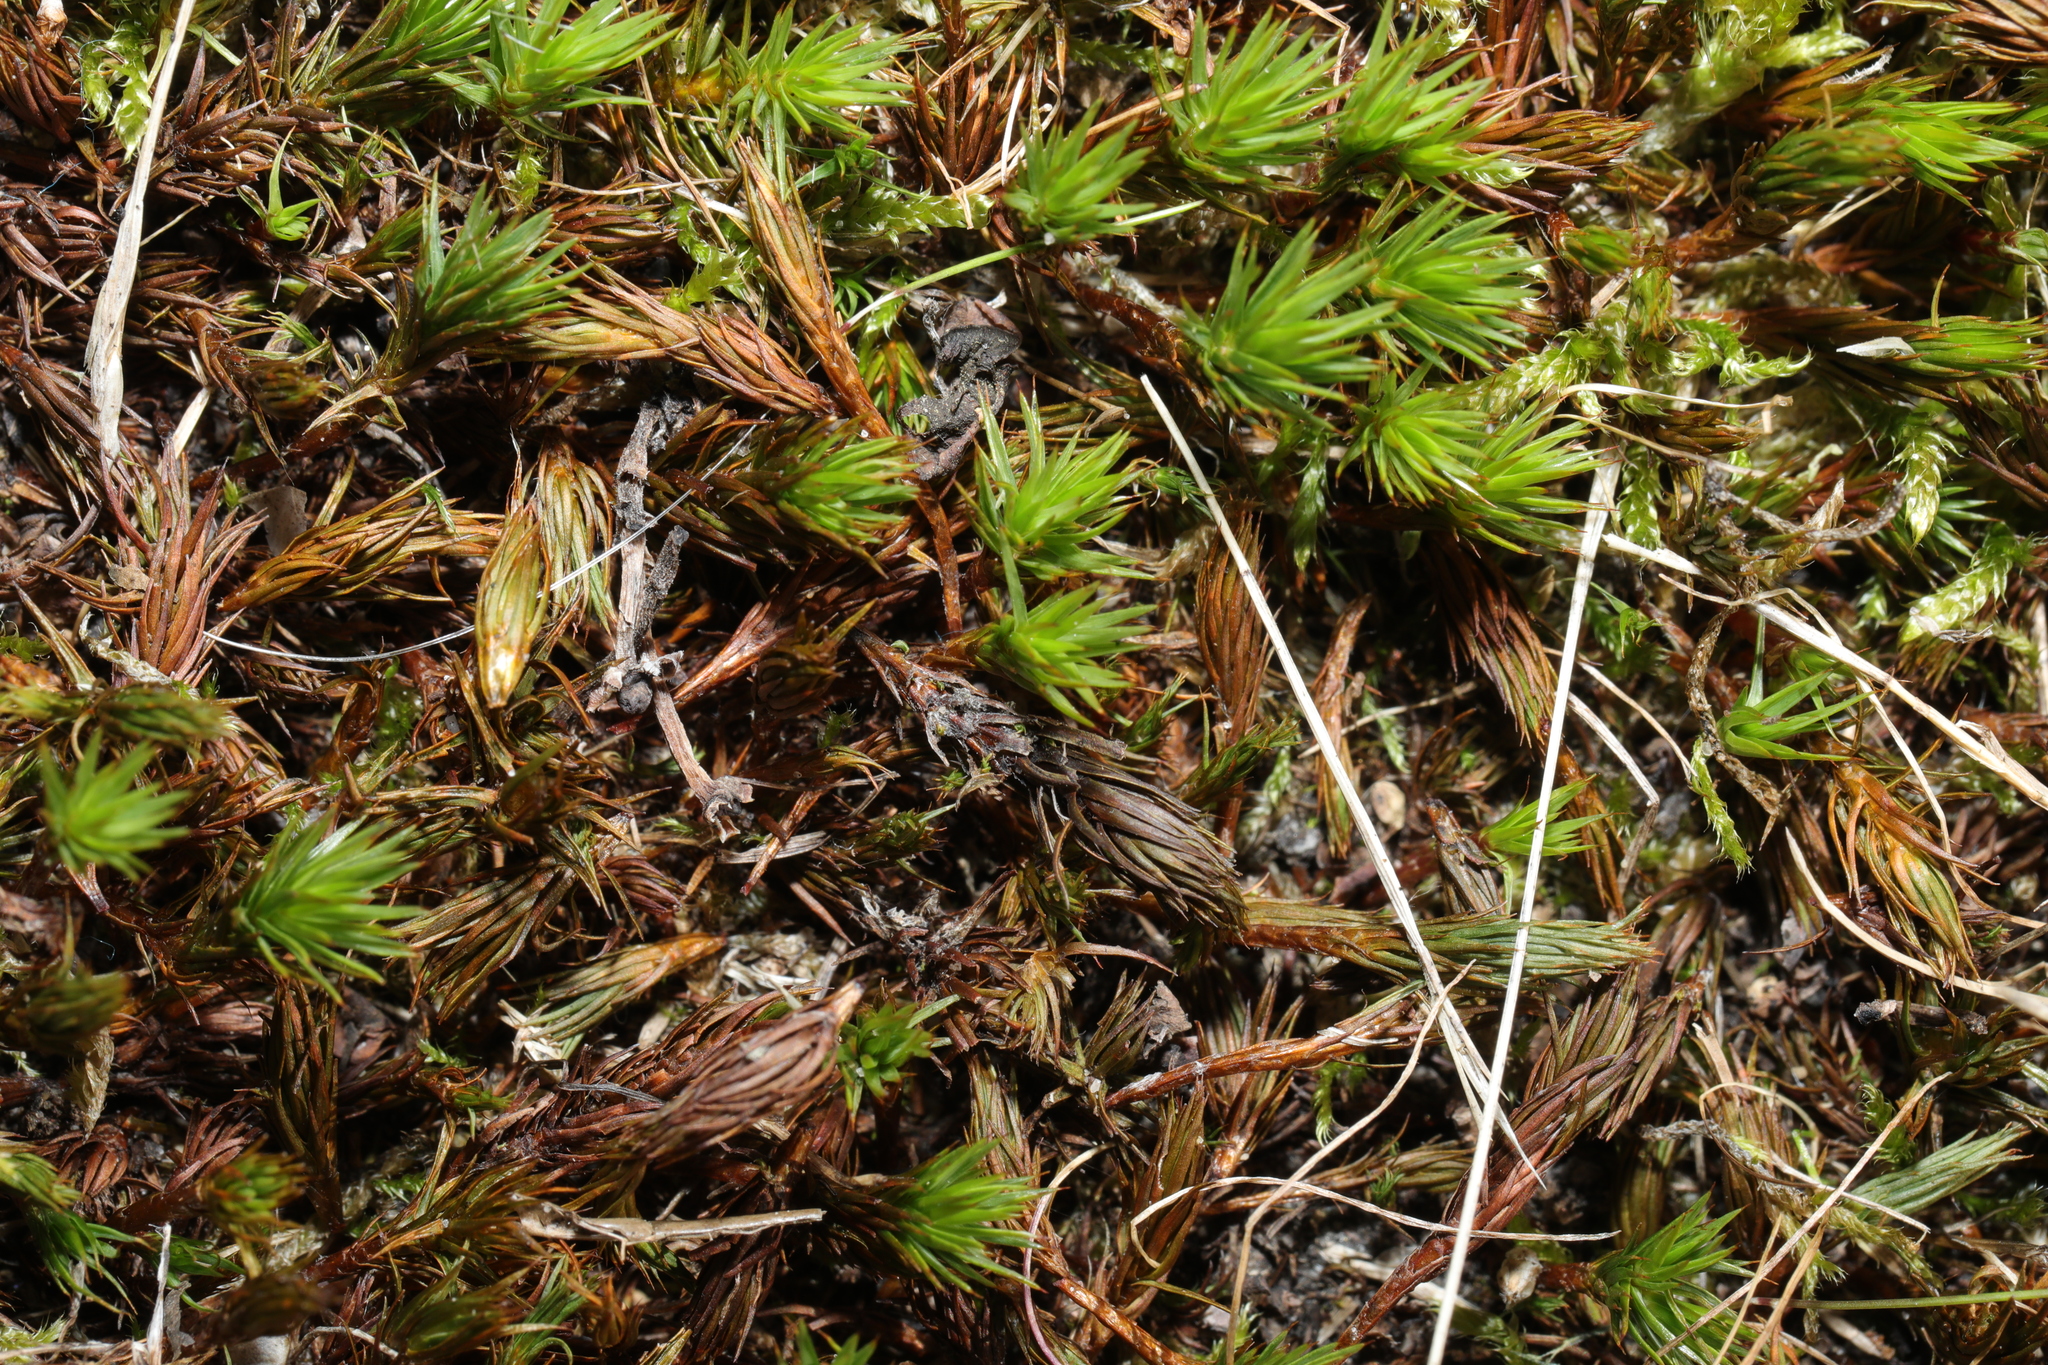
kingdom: Plantae
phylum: Bryophyta
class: Polytrichopsida
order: Polytrichales
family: Polytrichaceae
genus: Polytrichum
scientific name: Polytrichum juniperinum
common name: Juniper haircap moss
